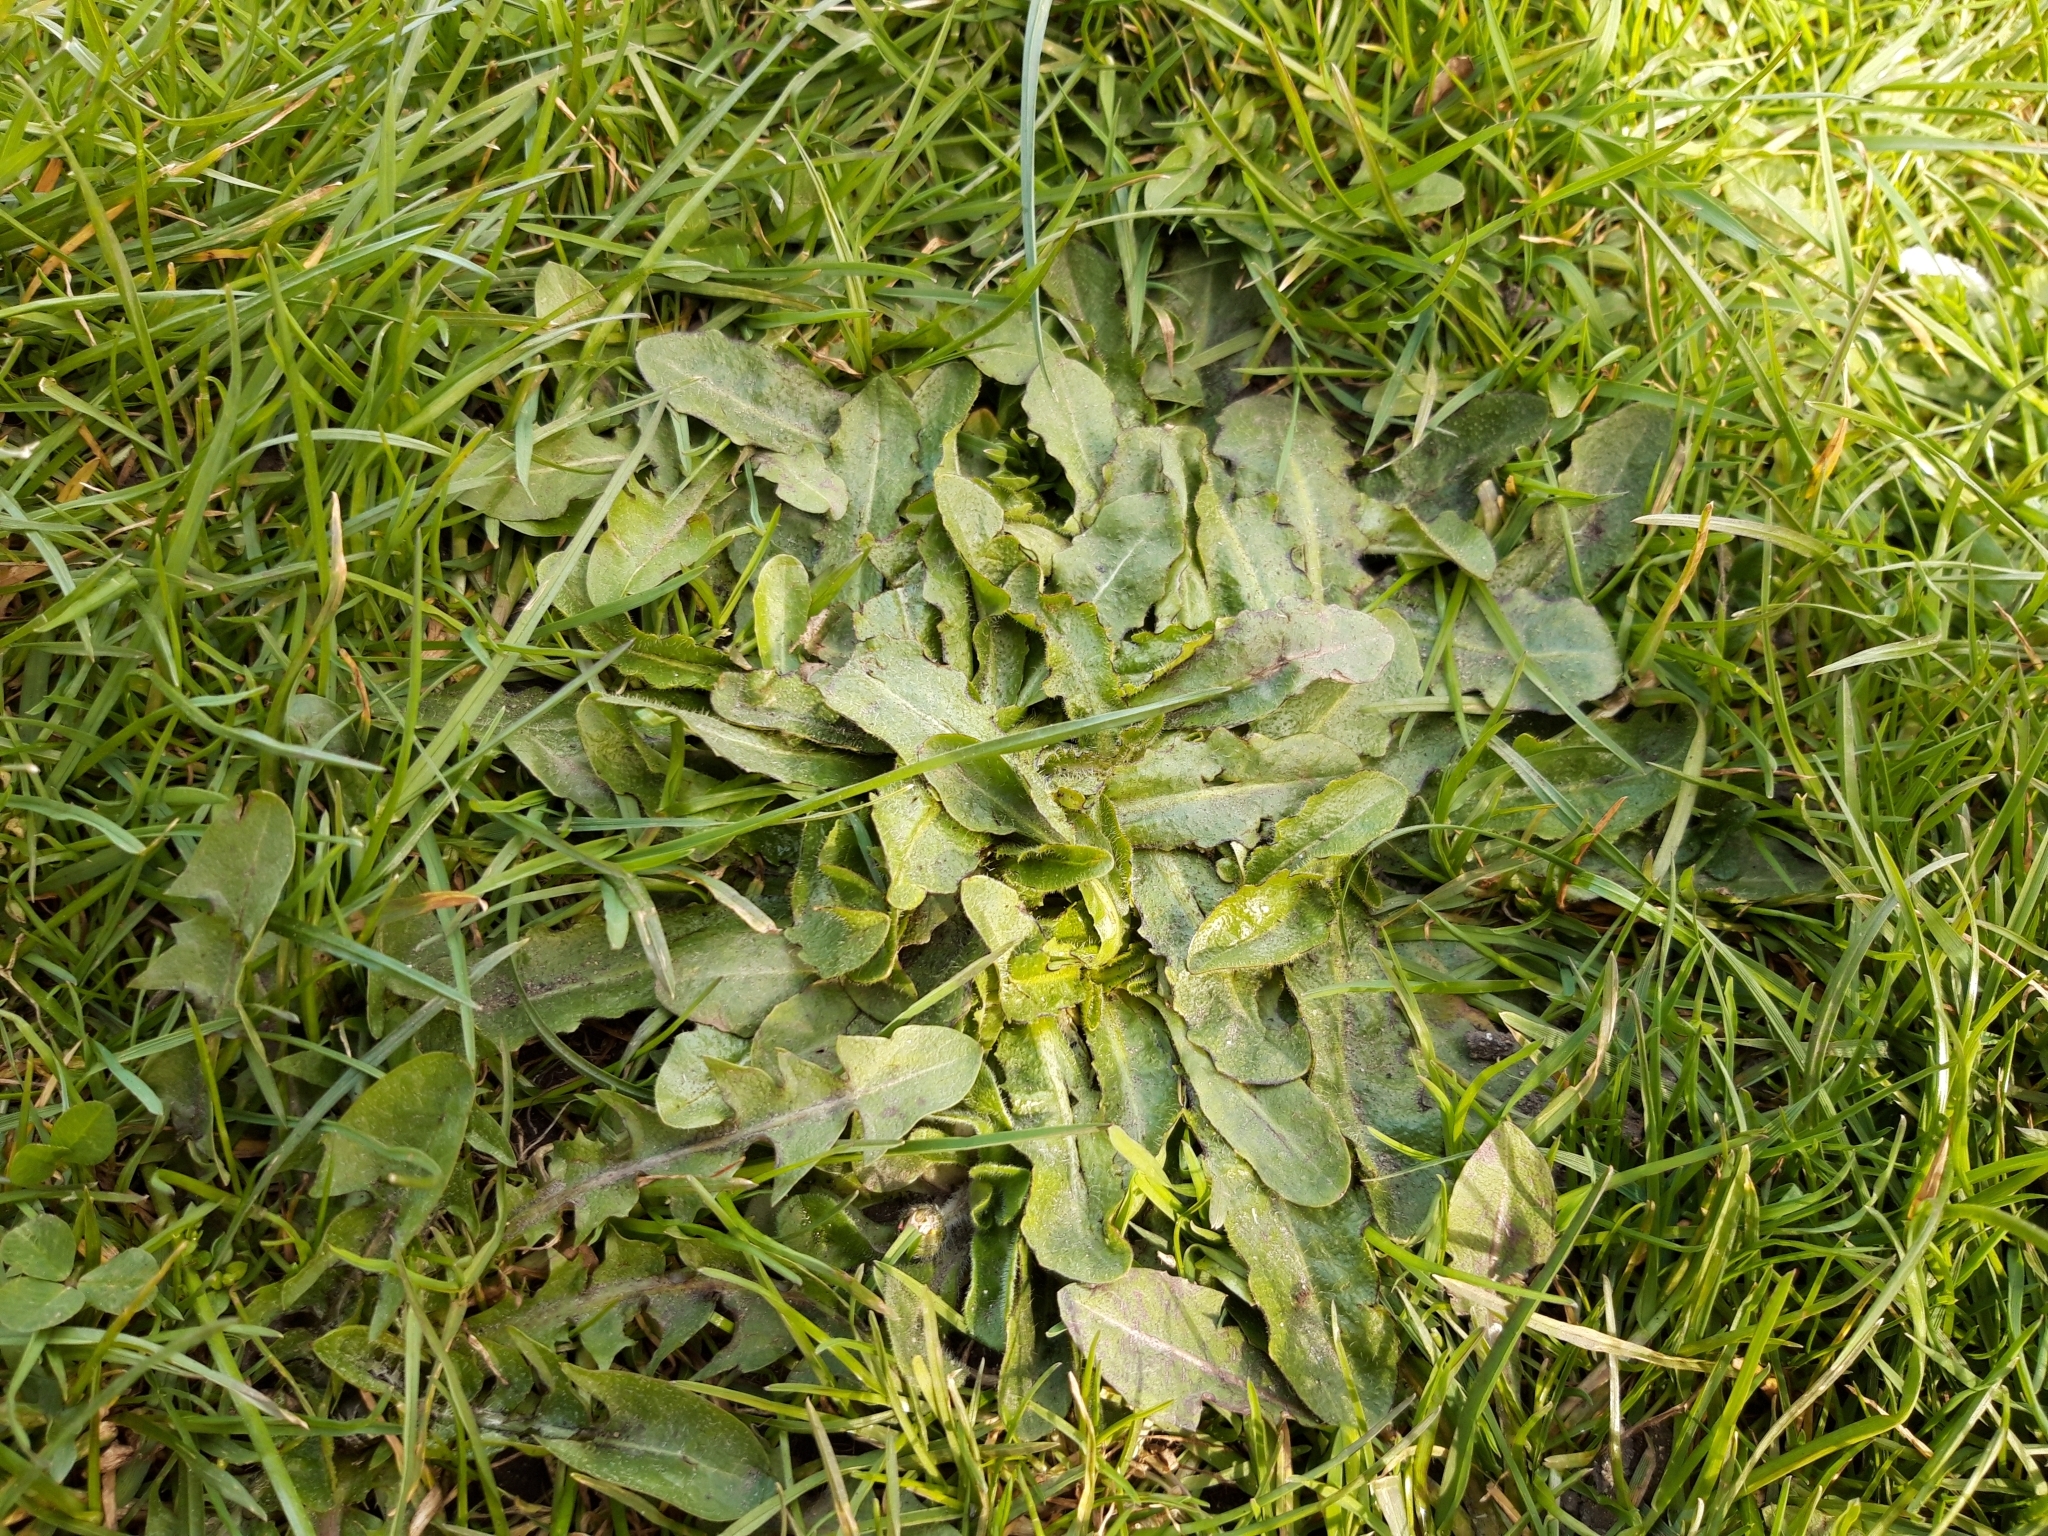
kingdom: Plantae
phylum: Tracheophyta
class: Magnoliopsida
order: Asterales
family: Asteraceae
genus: Hypochaeris
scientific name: Hypochaeris radicata
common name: Flatweed
